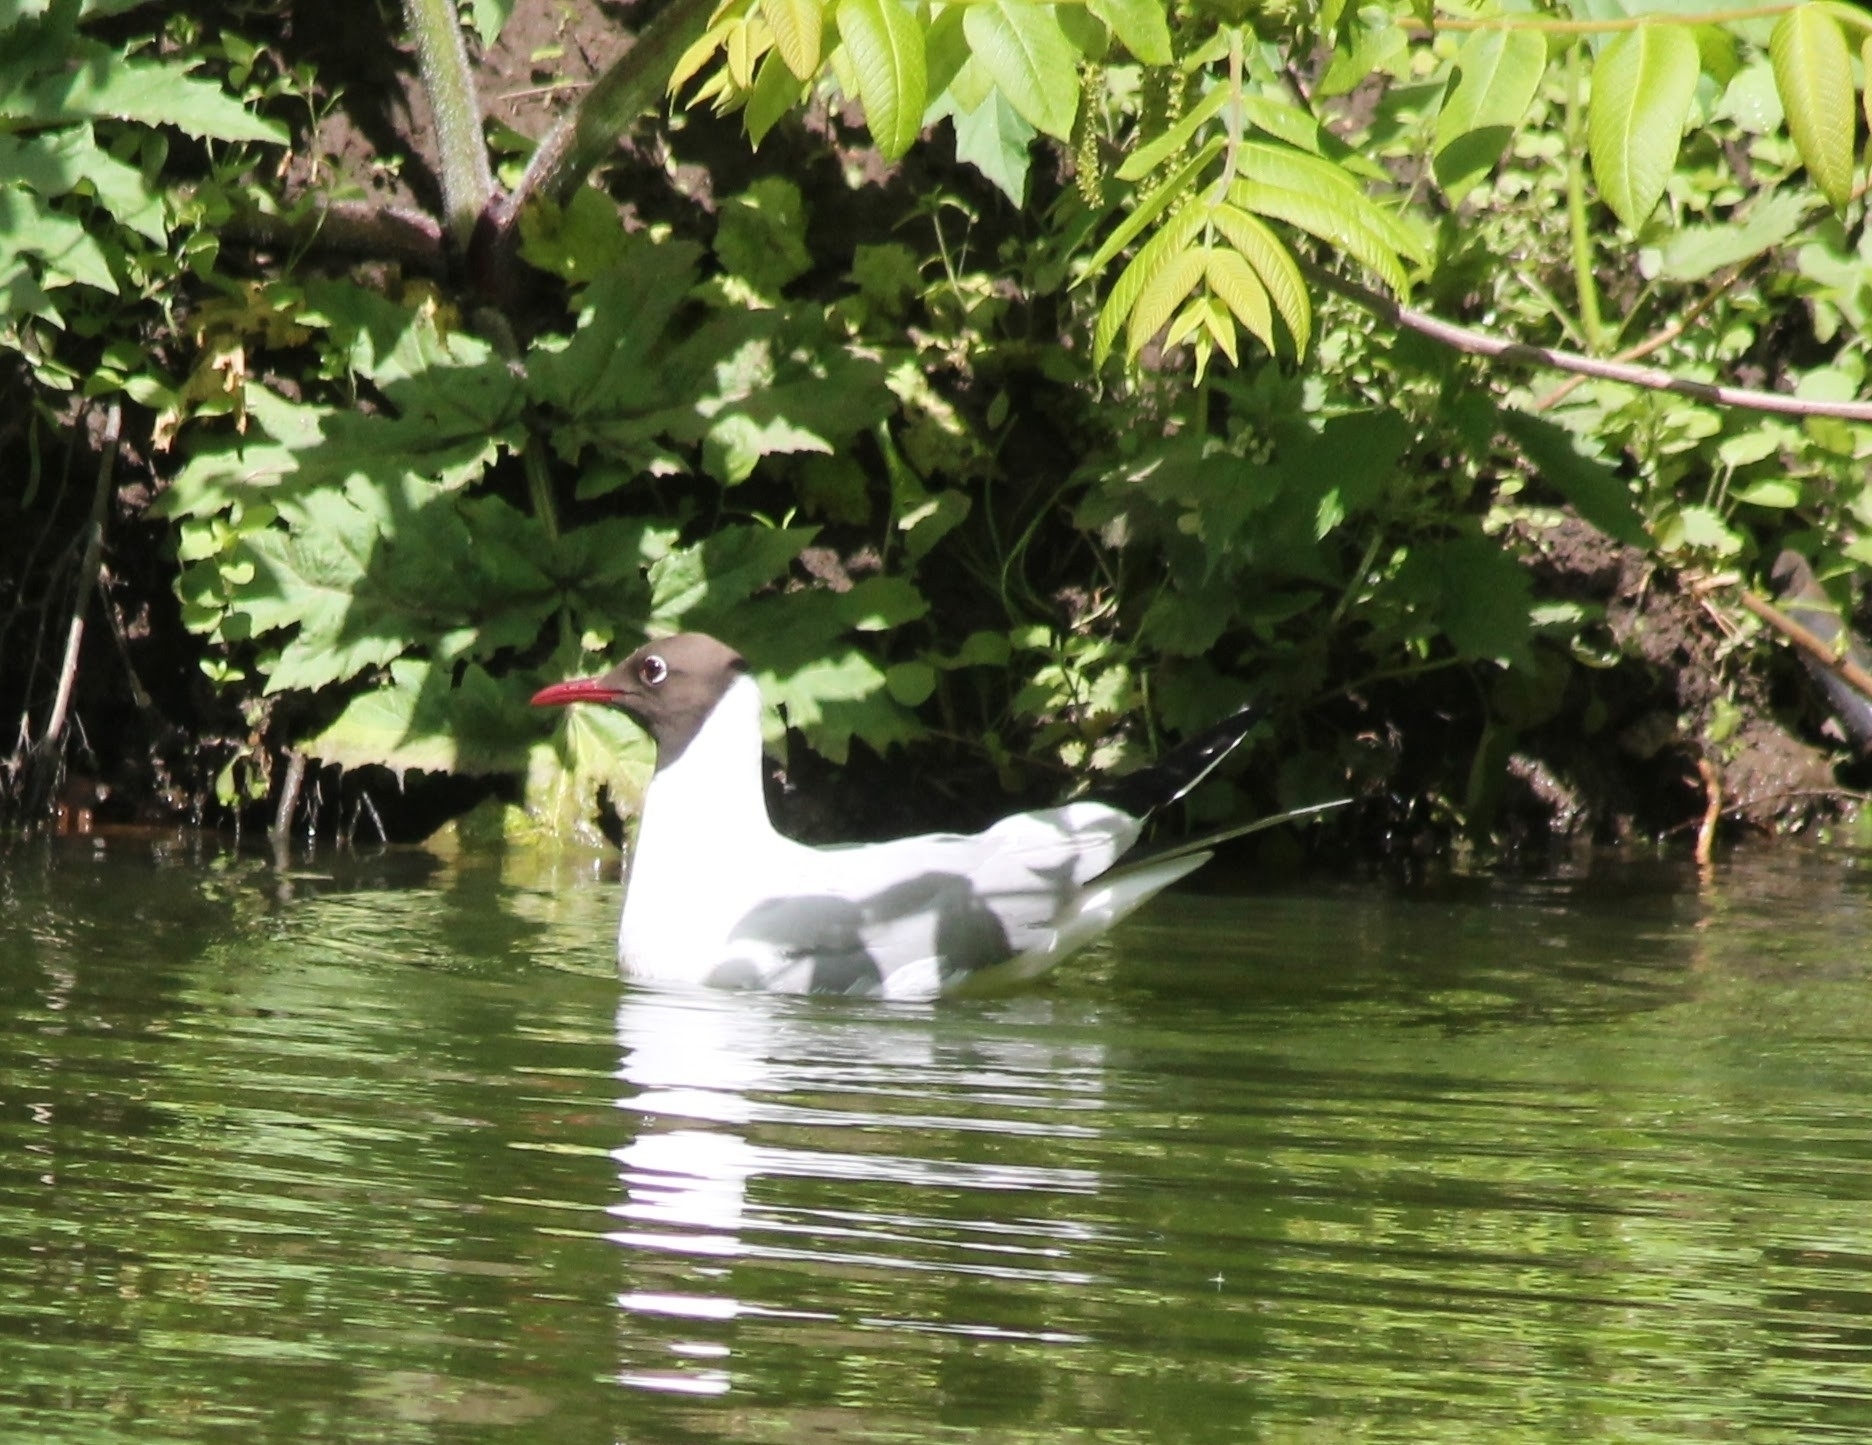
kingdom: Animalia
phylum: Chordata
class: Aves
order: Charadriiformes
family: Laridae
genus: Chroicocephalus
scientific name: Chroicocephalus ridibundus
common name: Black-headed gull
